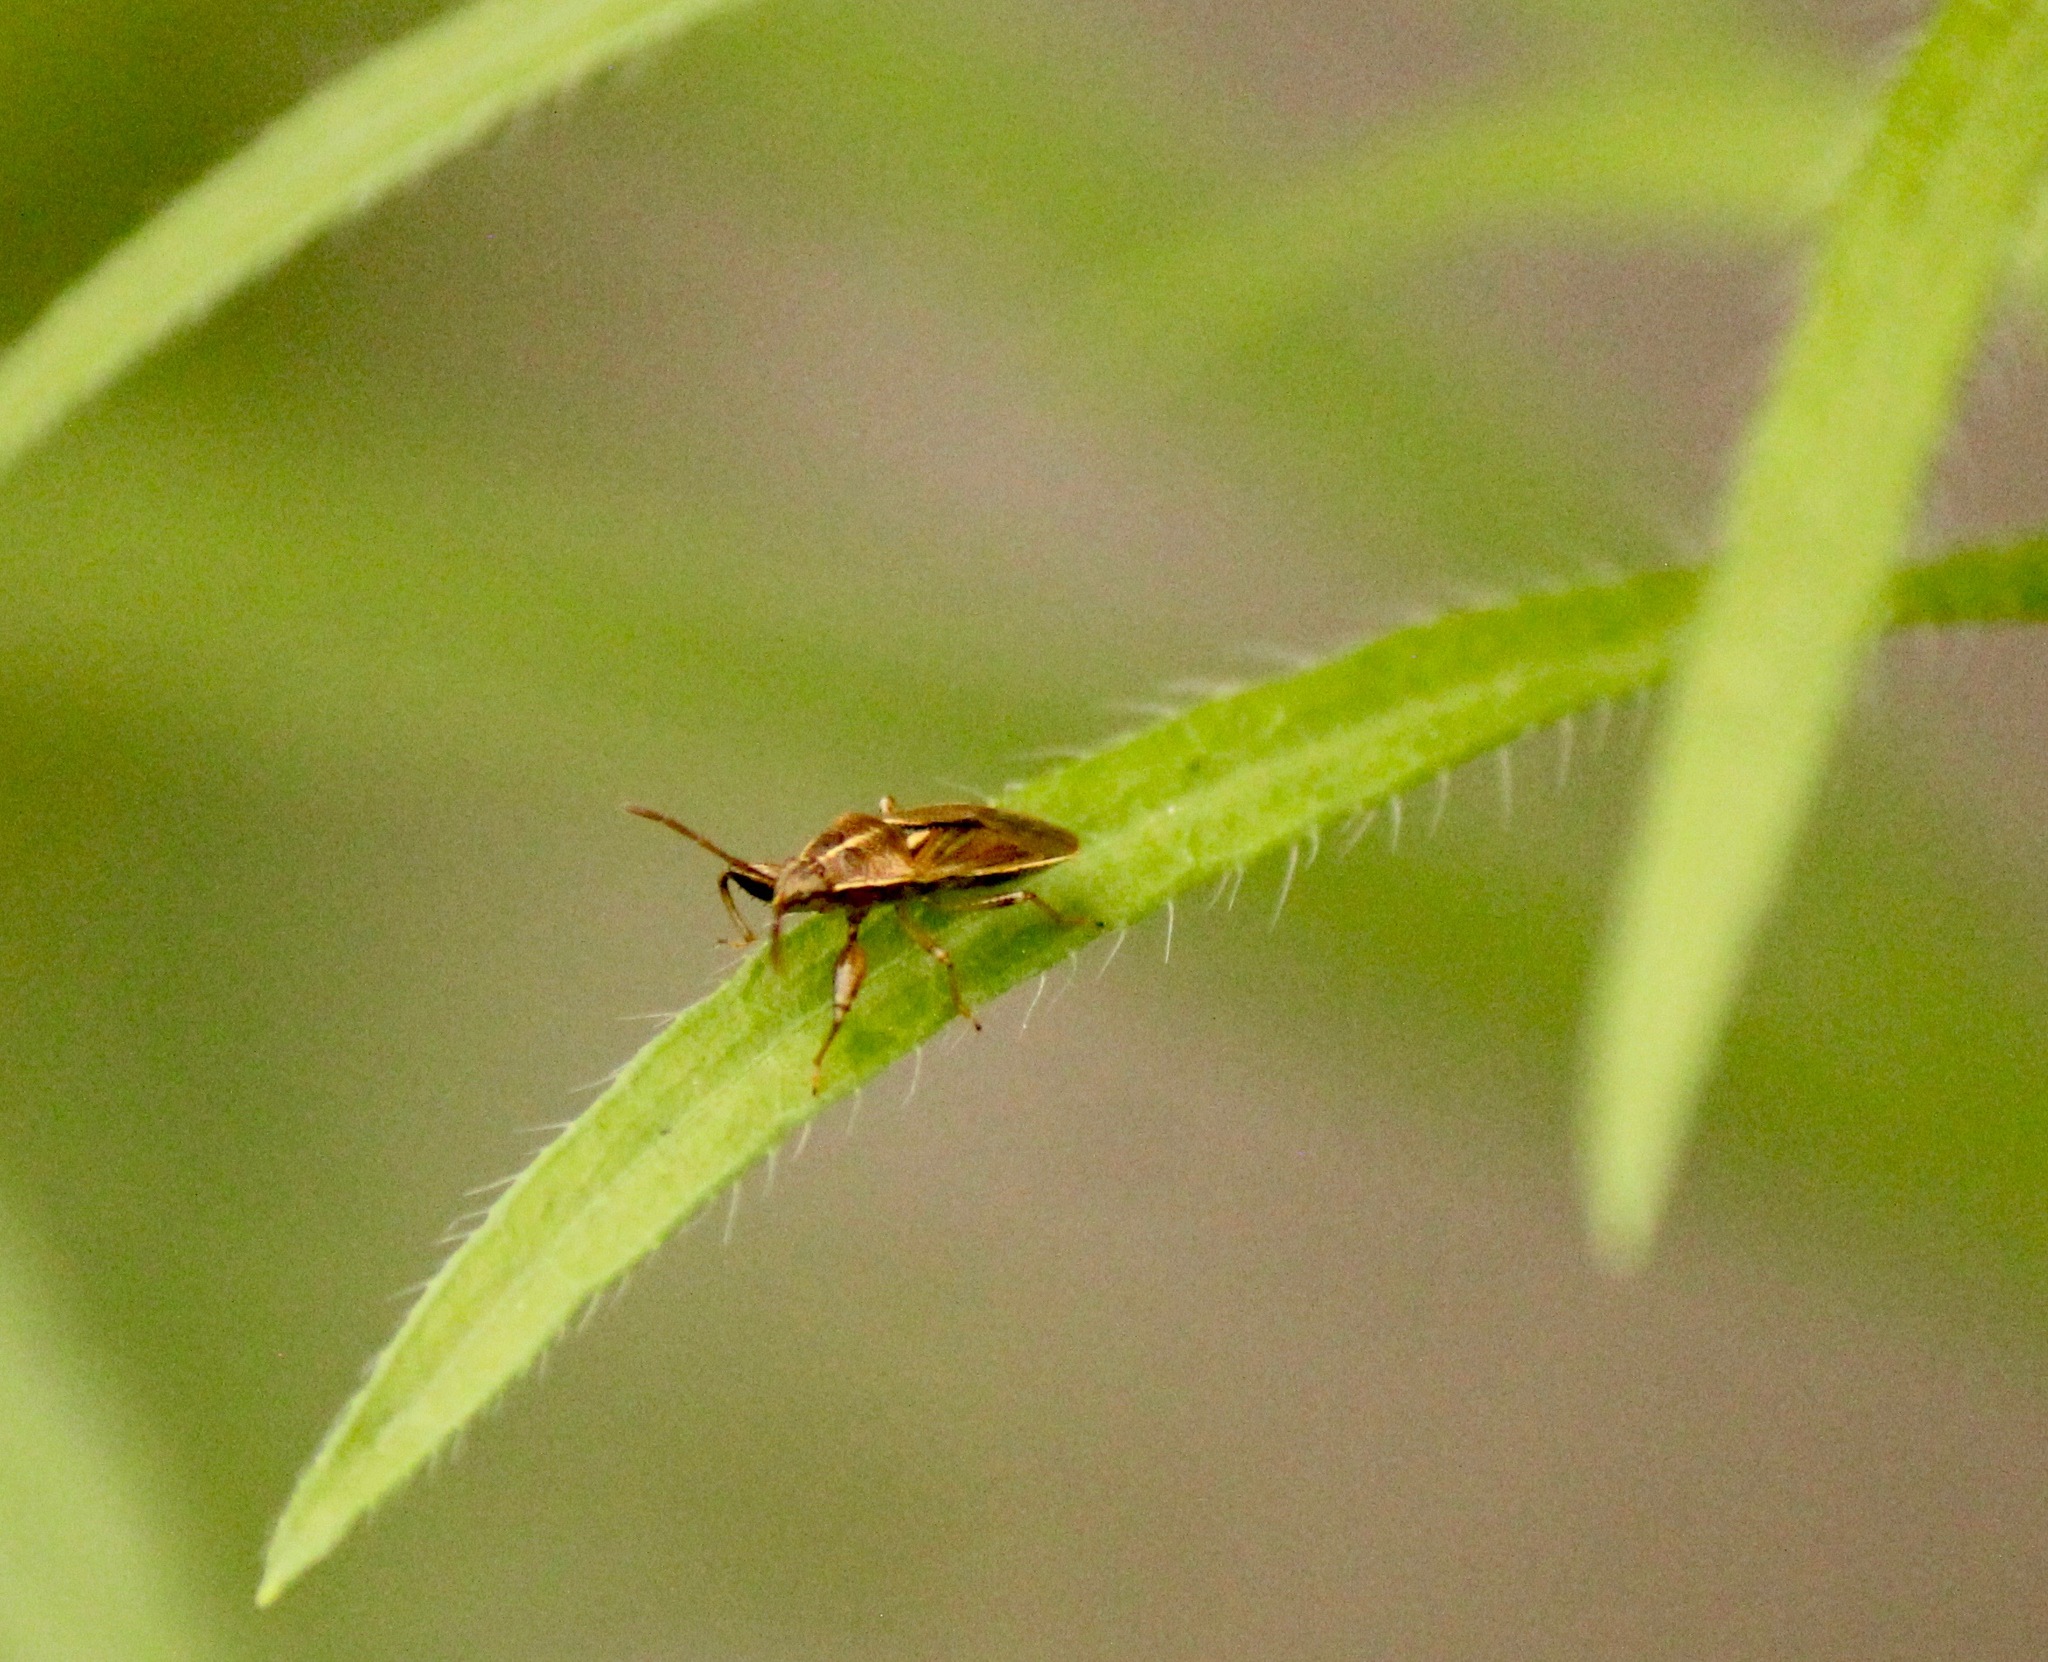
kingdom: Animalia
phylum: Arthropoda
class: Insecta
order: Hemiptera
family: Pachygronthidae
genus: Oedancala
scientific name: Oedancala dorsalis
